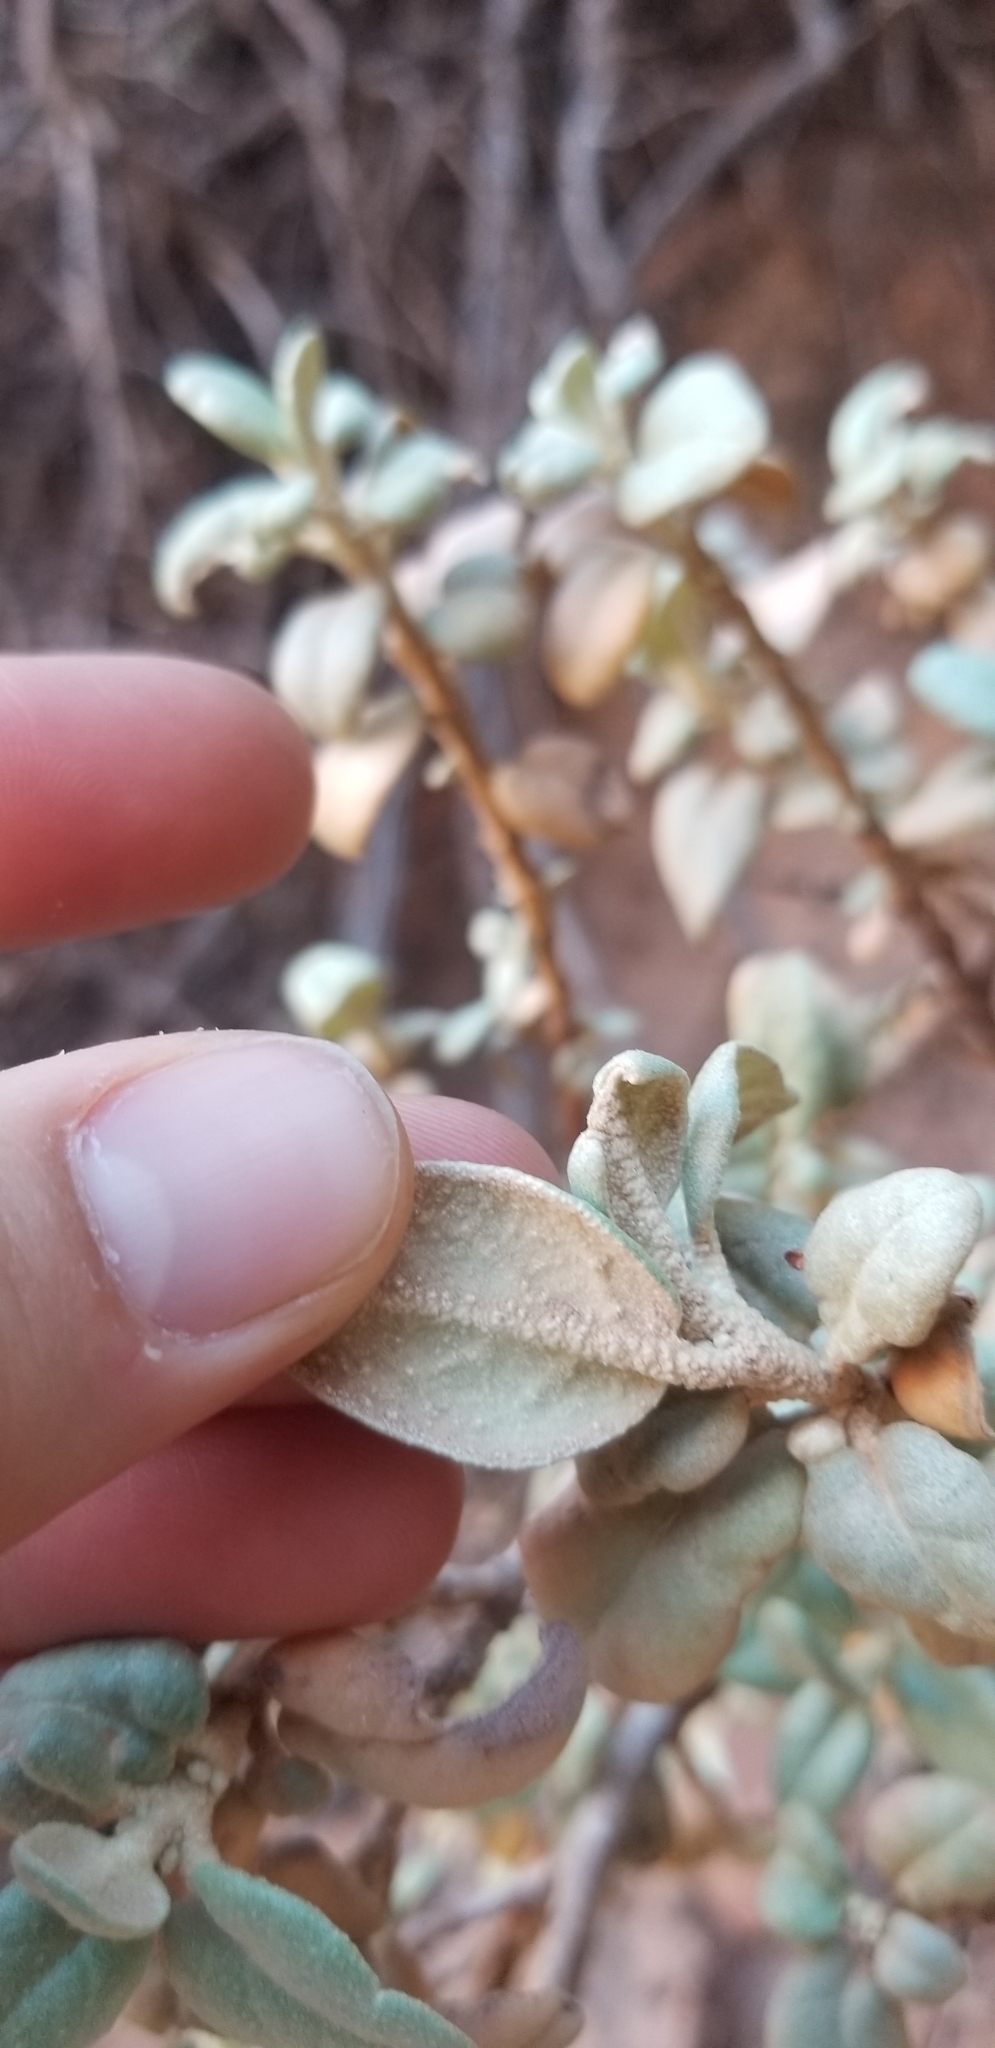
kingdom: Plantae
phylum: Tracheophyta
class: Magnoliopsida
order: Rosales
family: Elaeagnaceae
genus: Shepherdia
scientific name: Shepherdia rotundifolia
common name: Silverscale
